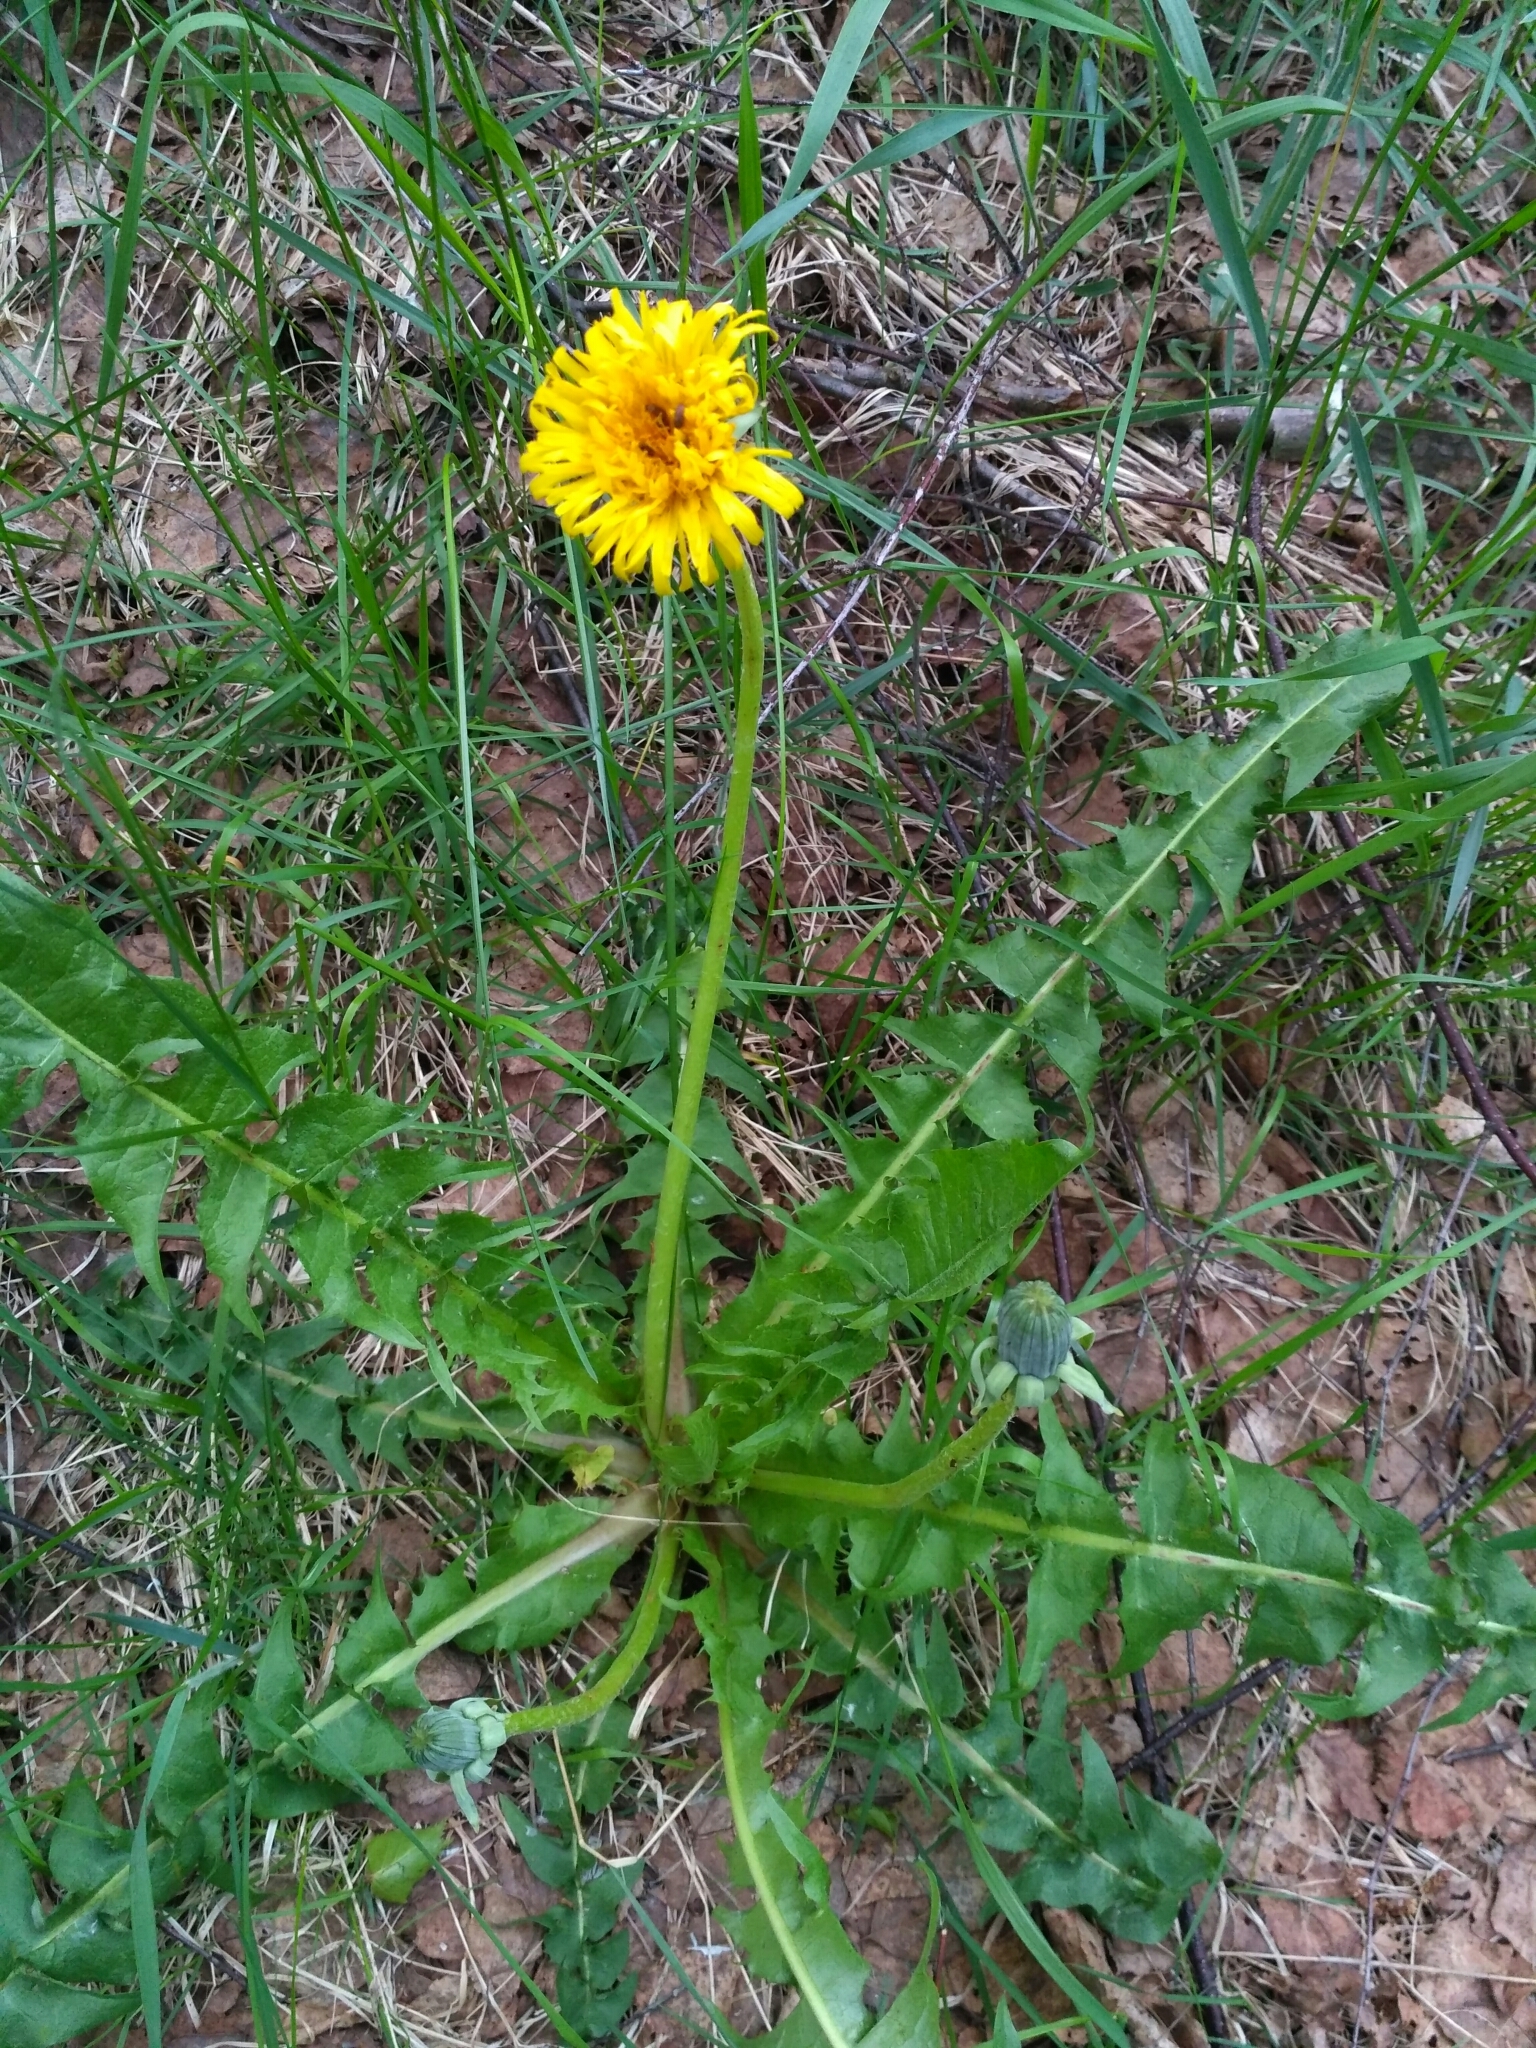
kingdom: Plantae
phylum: Tracheophyta
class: Magnoliopsida
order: Asterales
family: Asteraceae
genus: Taraxacum
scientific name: Taraxacum officinale
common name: Common dandelion
